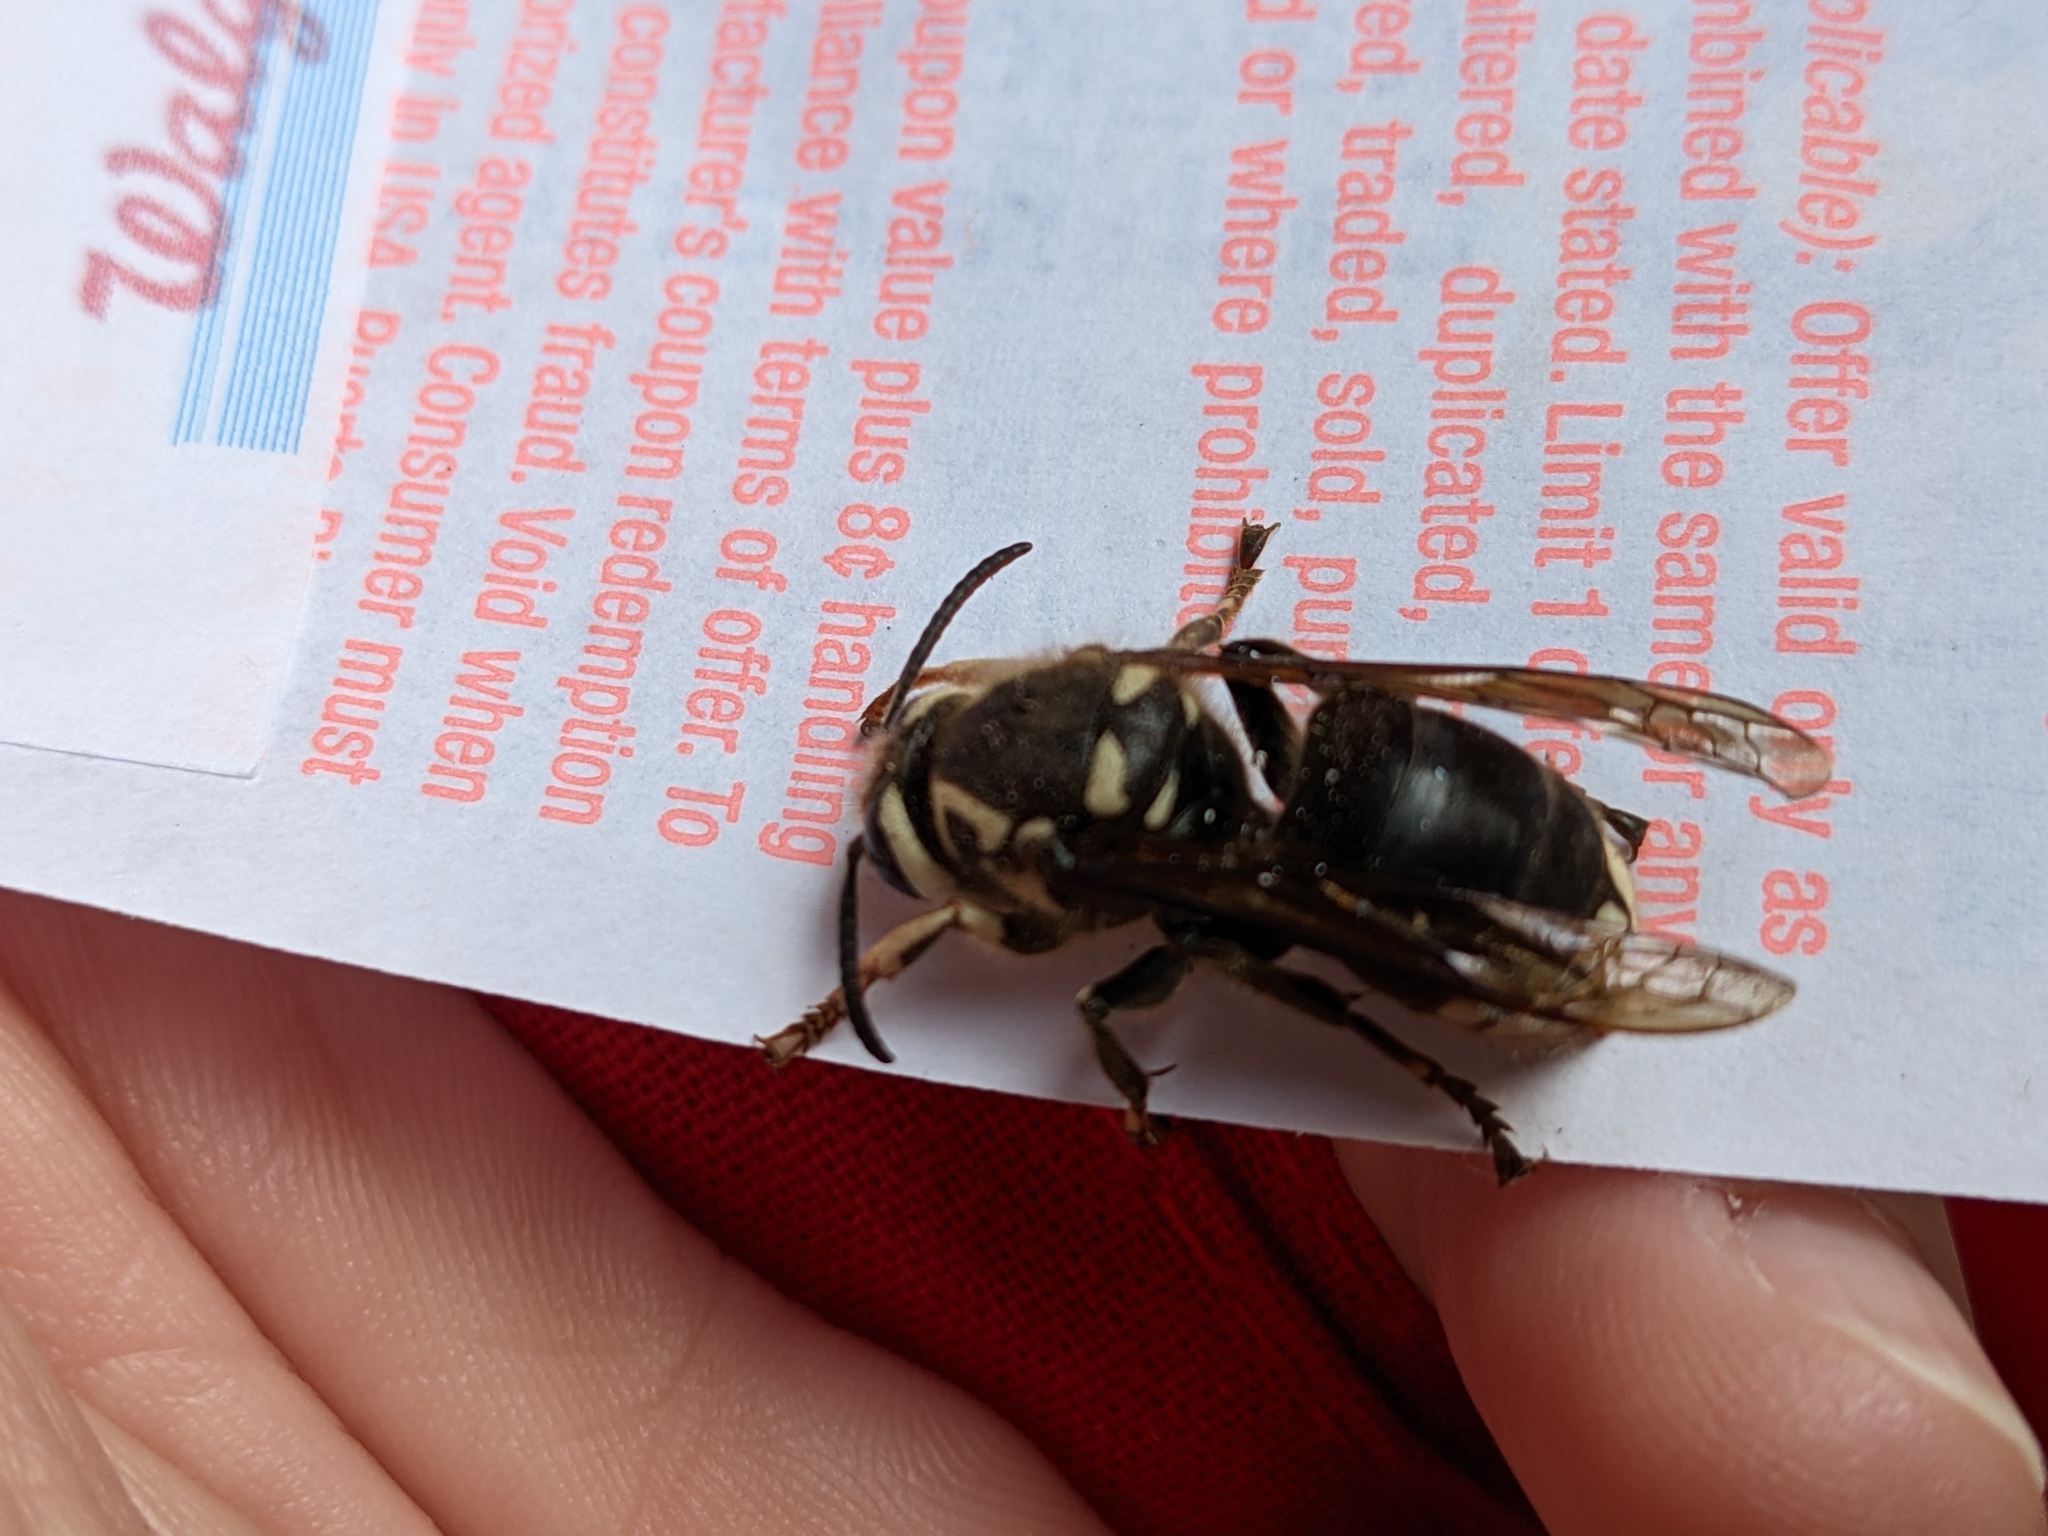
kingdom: Animalia
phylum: Arthropoda
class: Insecta
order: Hymenoptera
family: Vespidae
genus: Dolichovespula
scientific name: Dolichovespula maculata
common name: Bald-faced hornet
